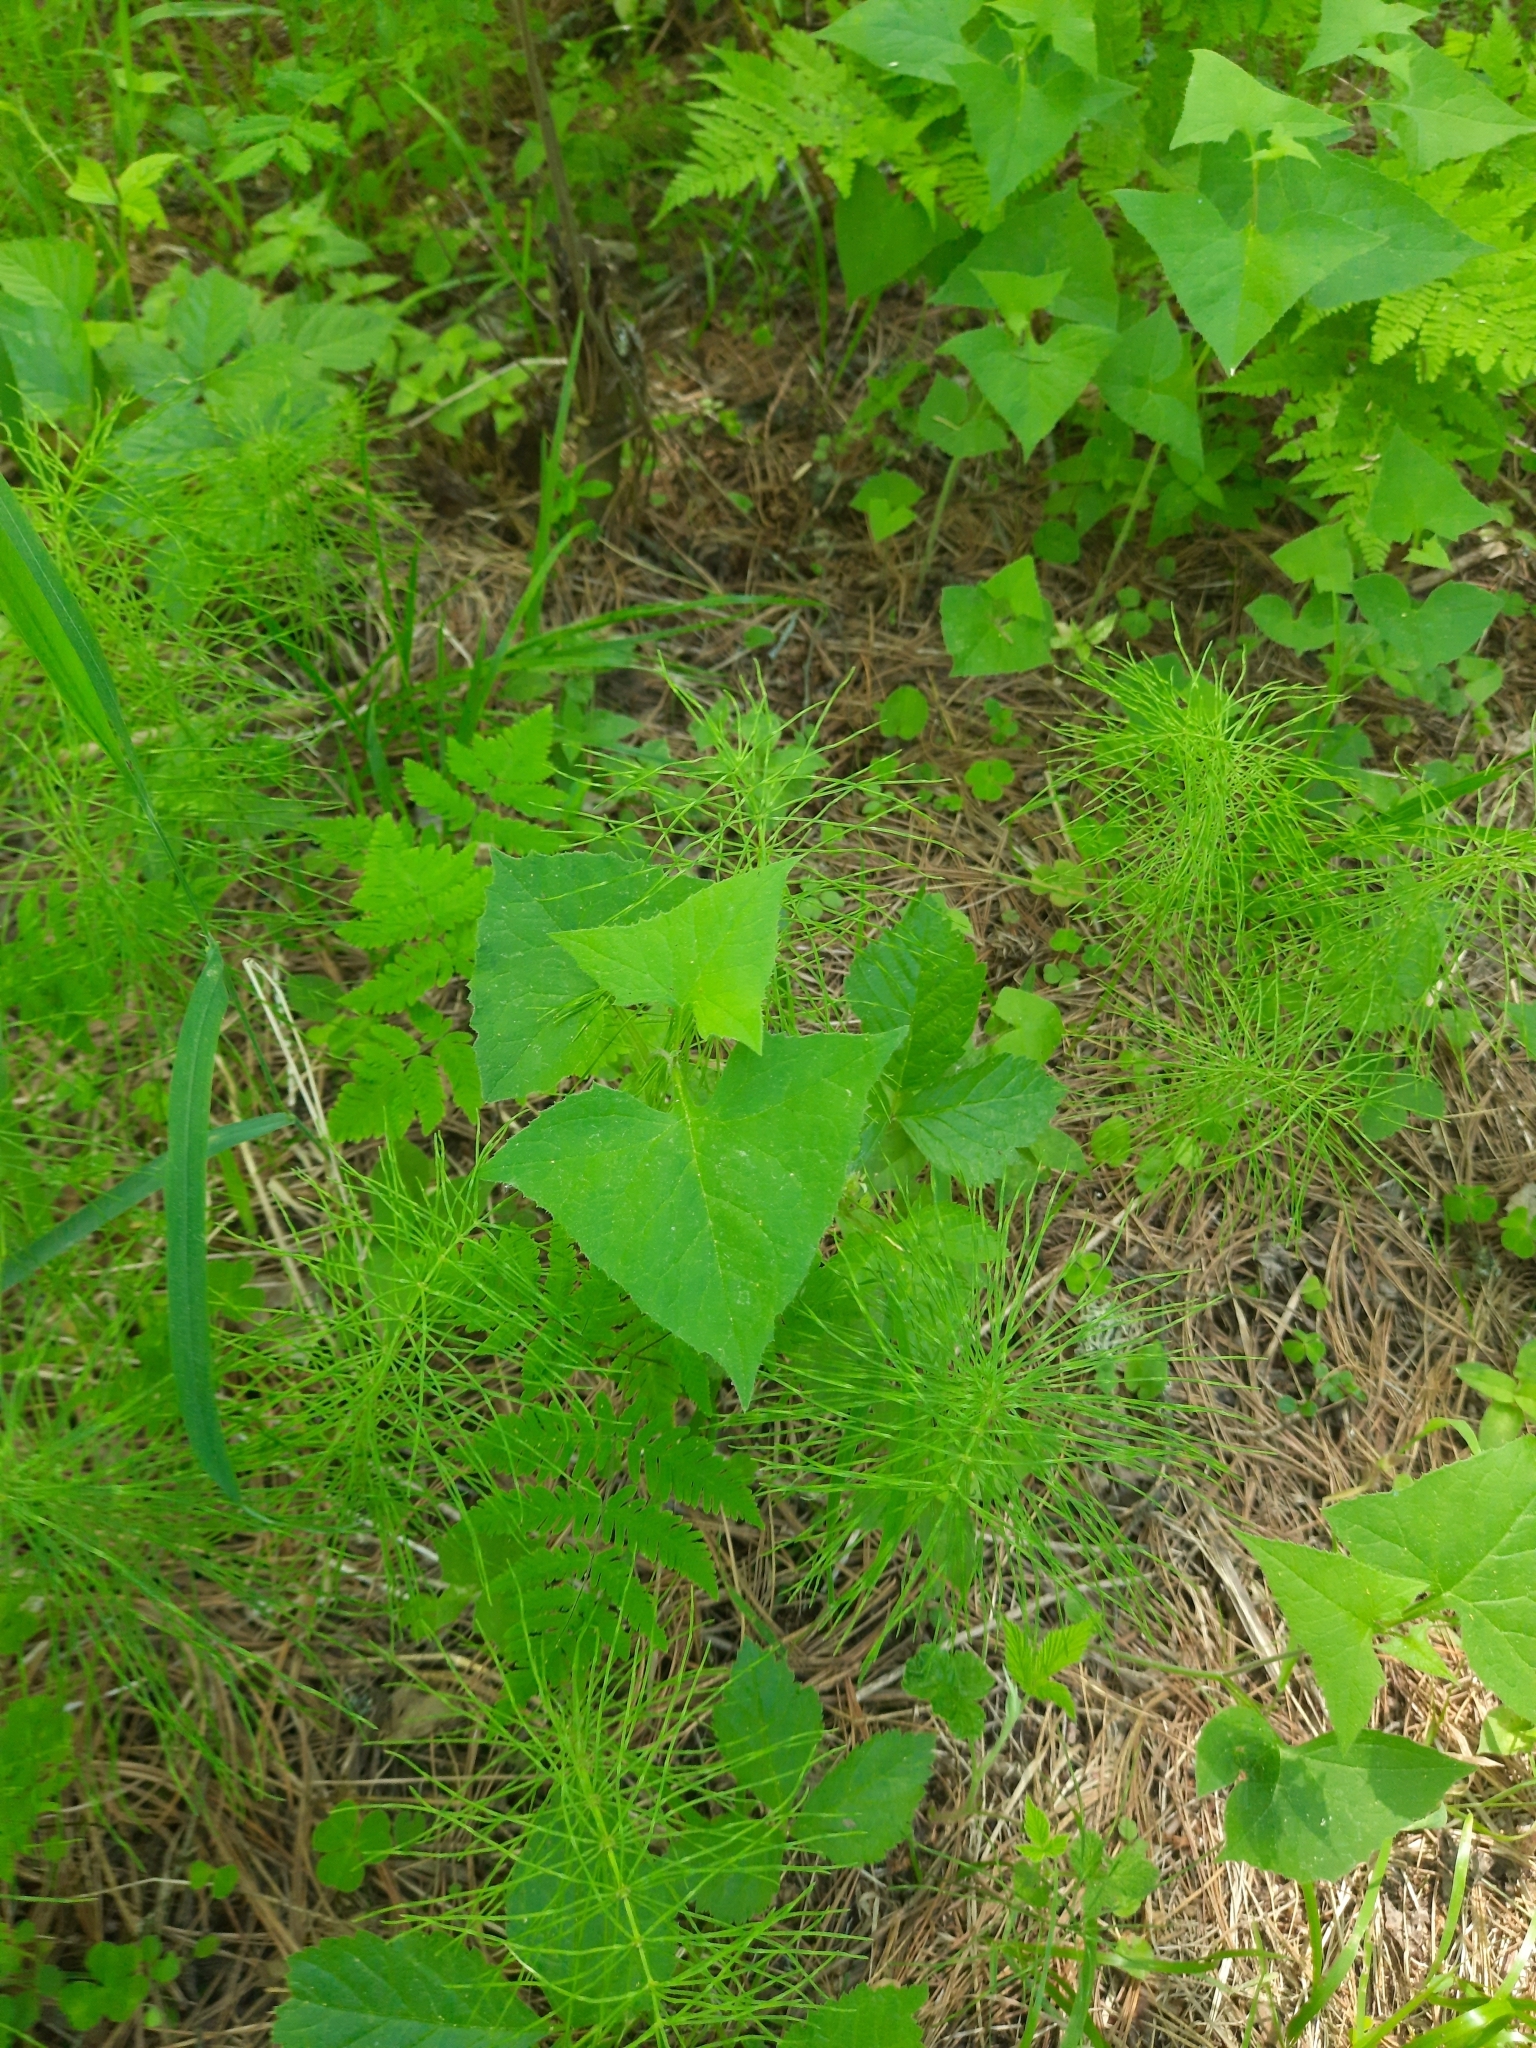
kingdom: Plantae
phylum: Tracheophyta
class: Magnoliopsida
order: Asterales
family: Asteraceae
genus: Parasenecio
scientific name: Parasenecio hastatus
